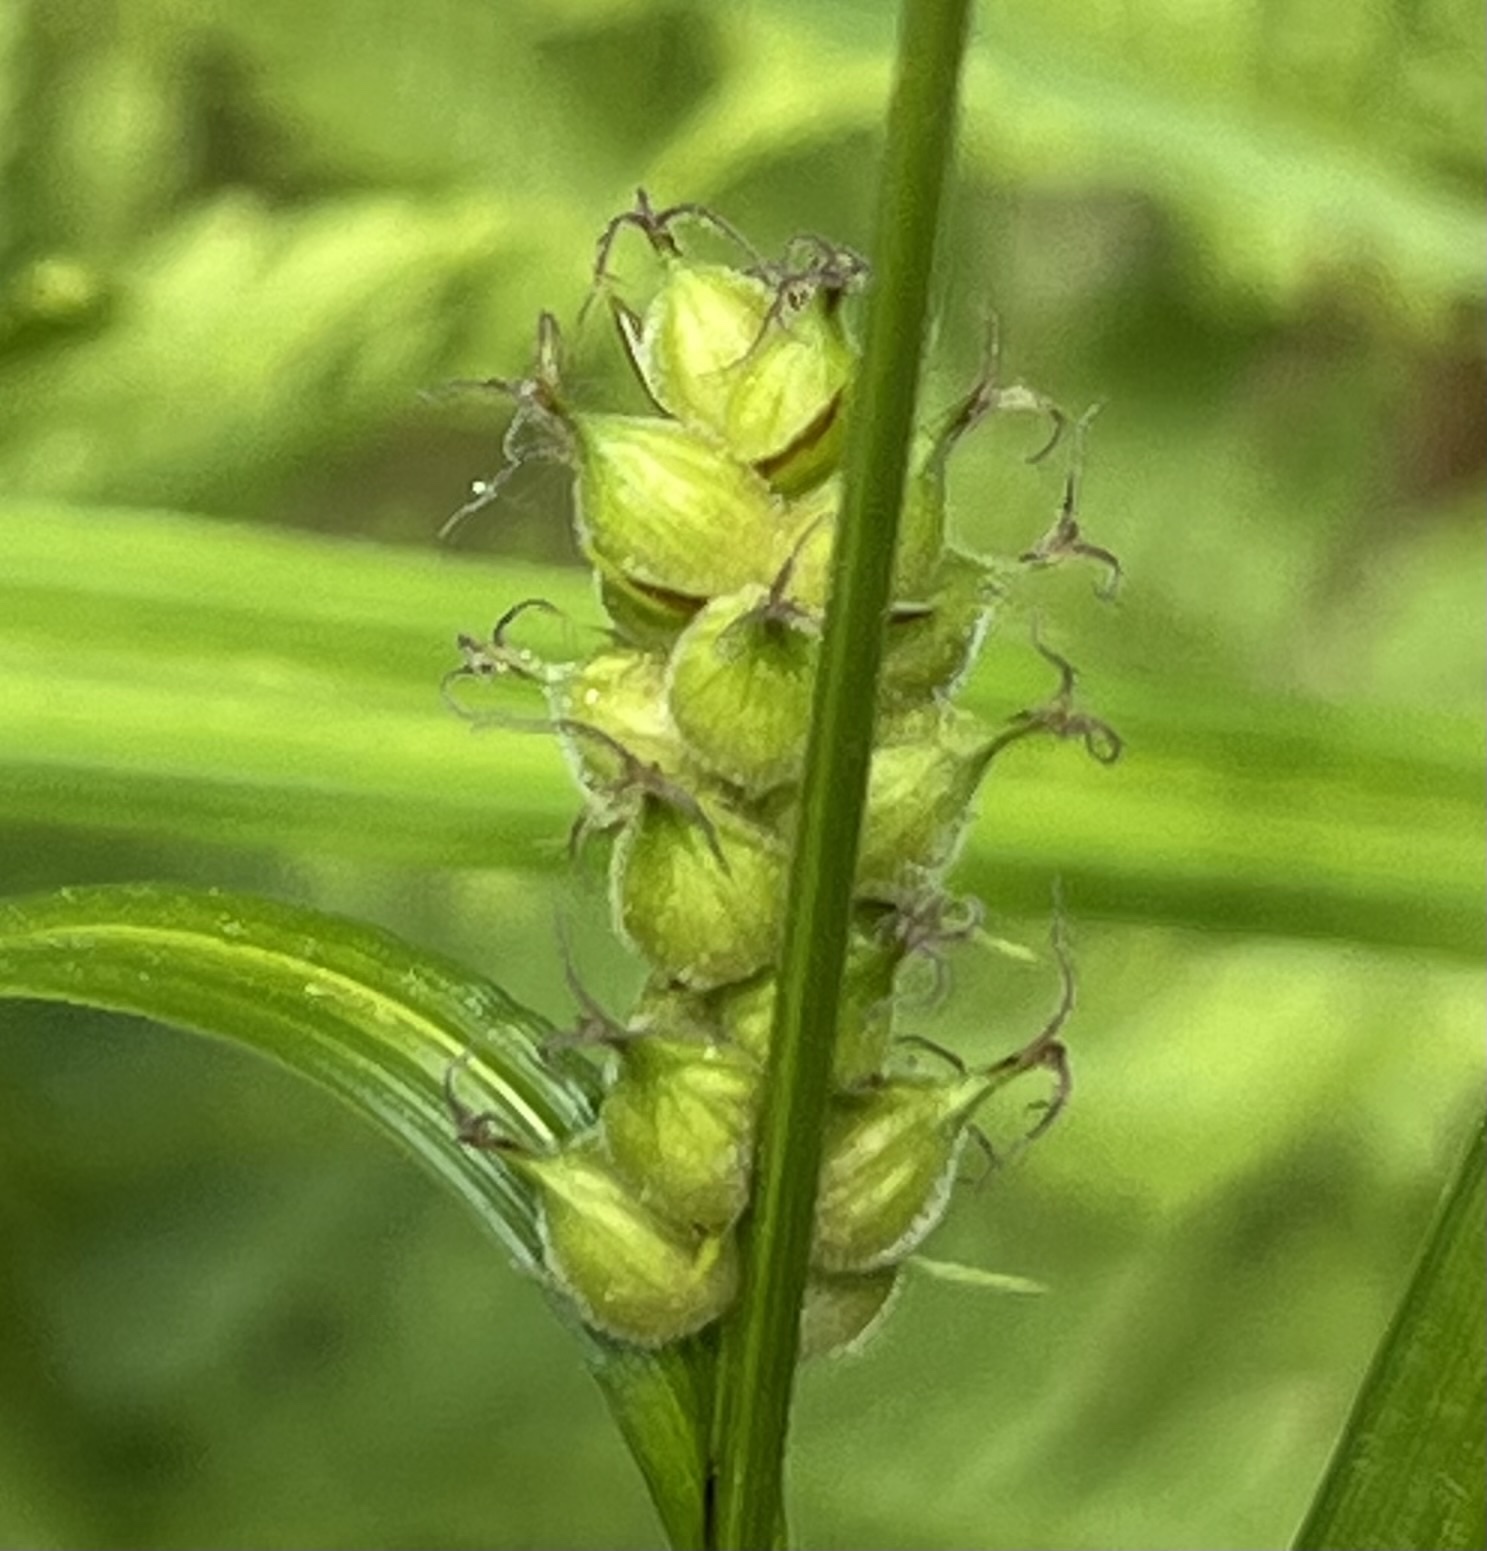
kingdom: Plantae
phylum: Tracheophyta
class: Liliopsida
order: Poales
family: Cyperaceae
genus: Carex
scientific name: Carex houghtoniana
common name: Houghton's sedge
